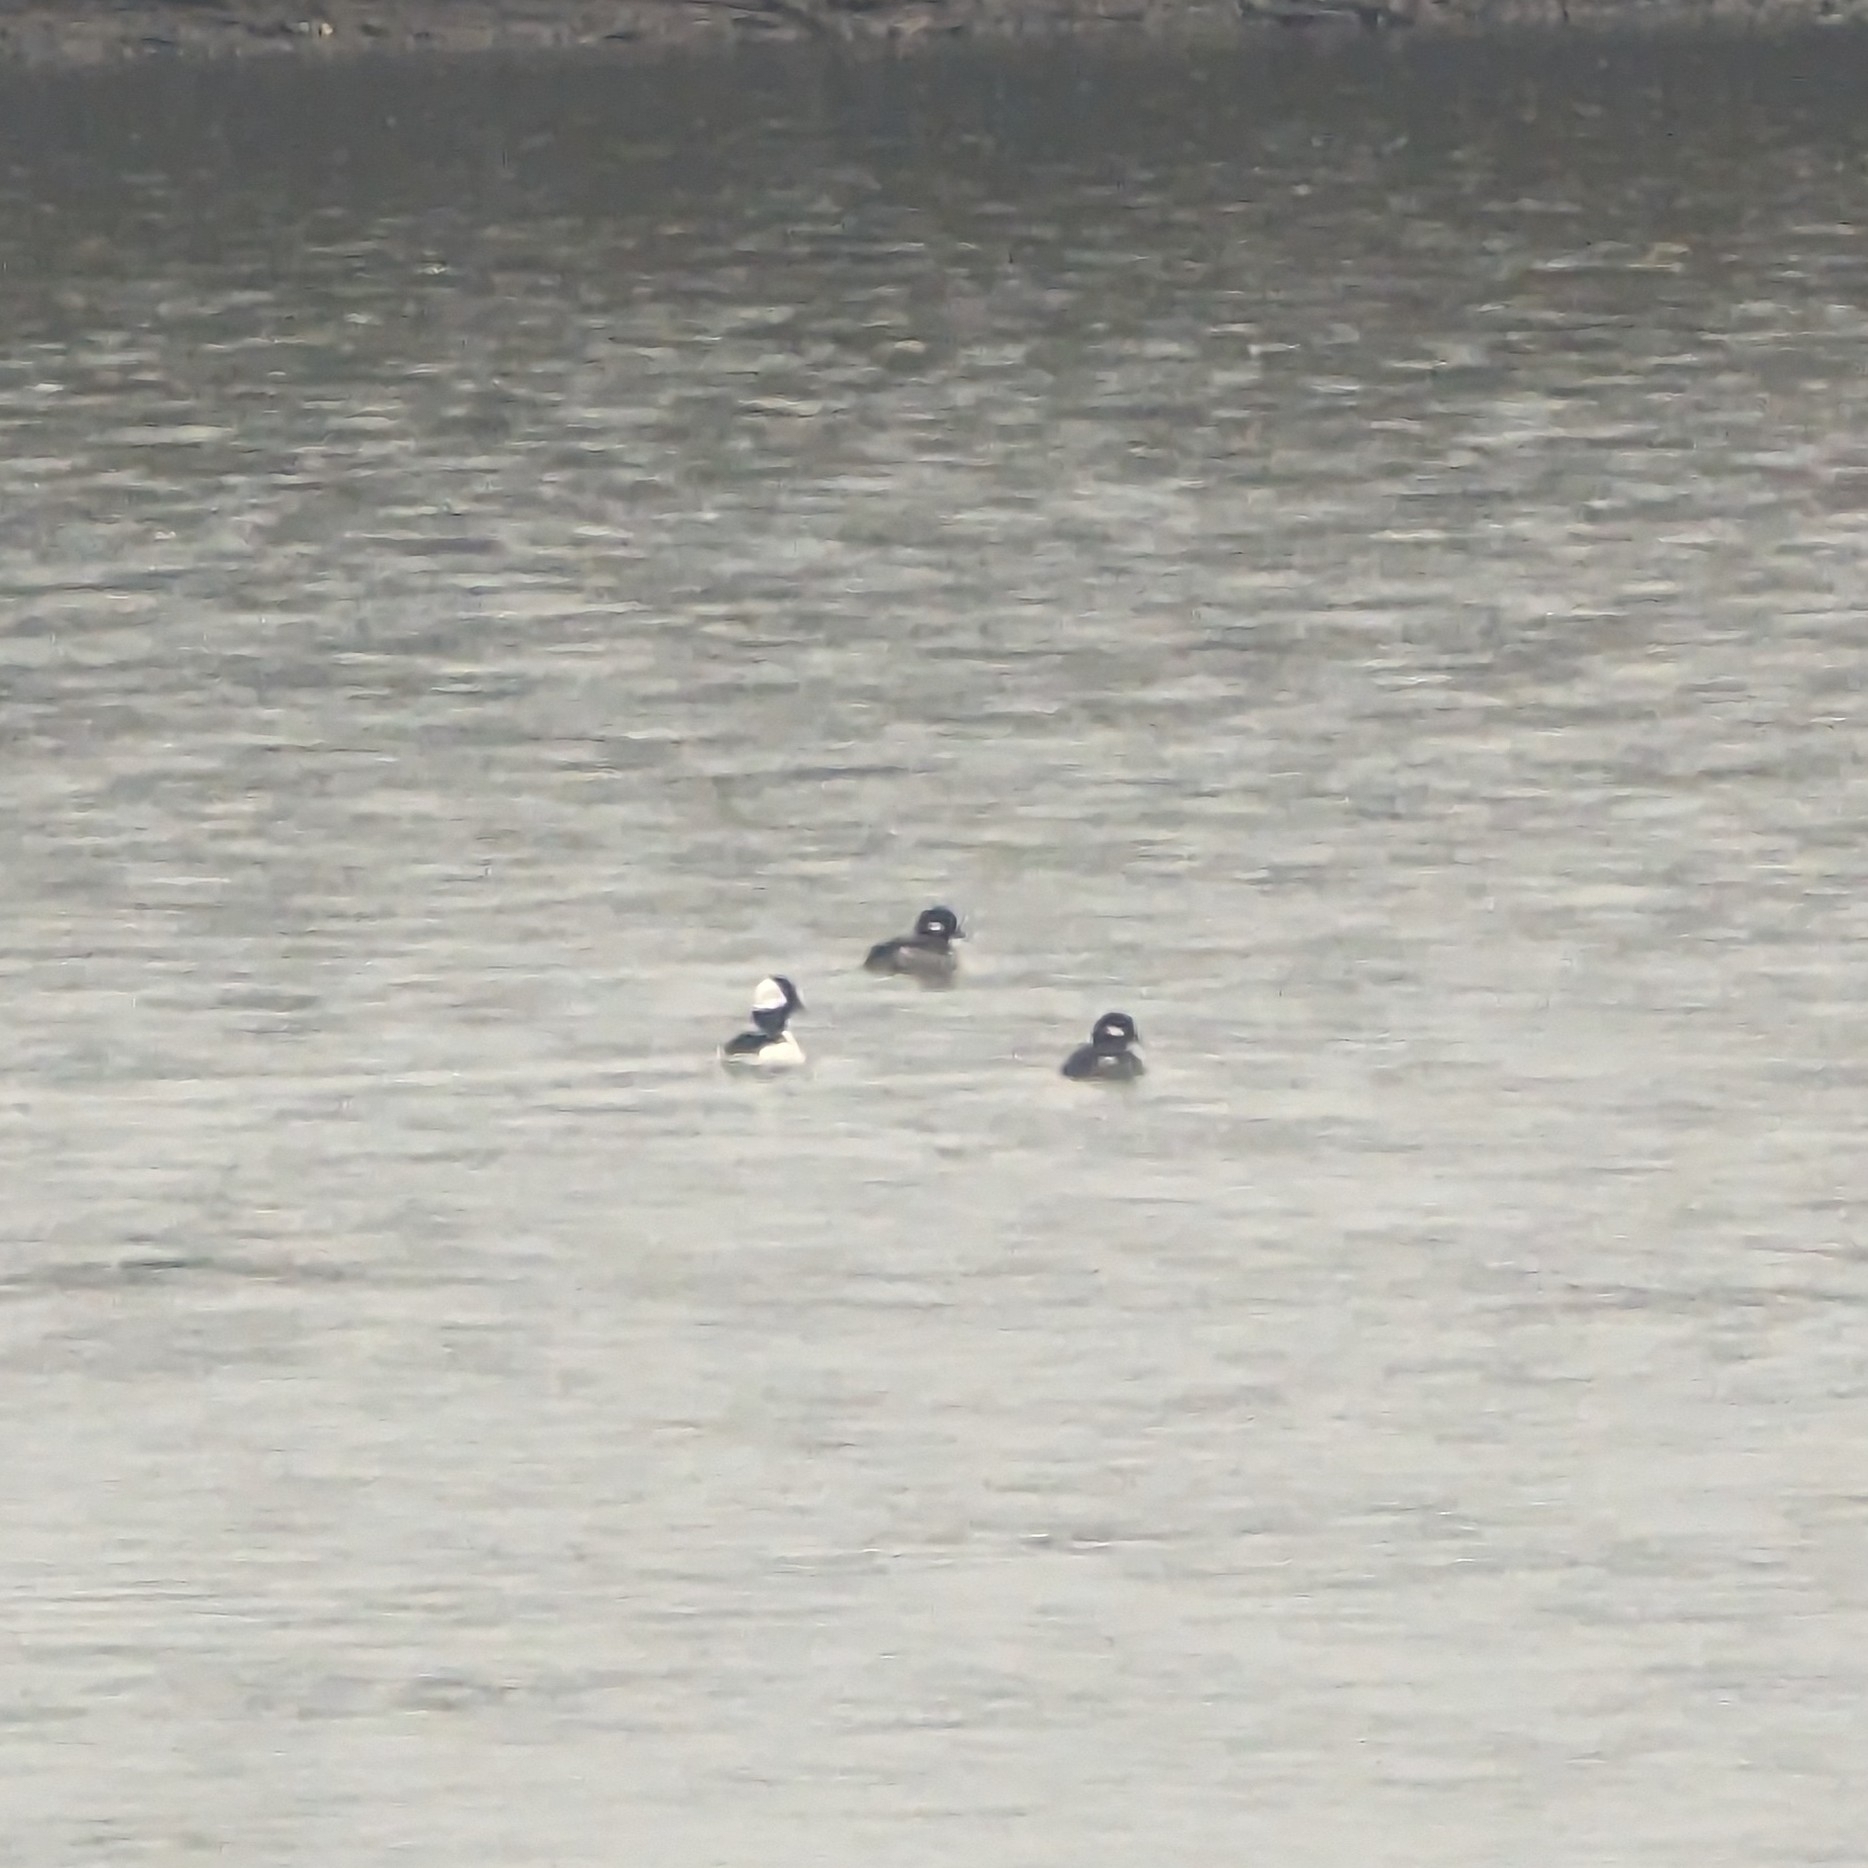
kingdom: Animalia
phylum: Chordata
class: Aves
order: Anseriformes
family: Anatidae
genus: Bucephala
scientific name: Bucephala albeola
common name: Bufflehead
